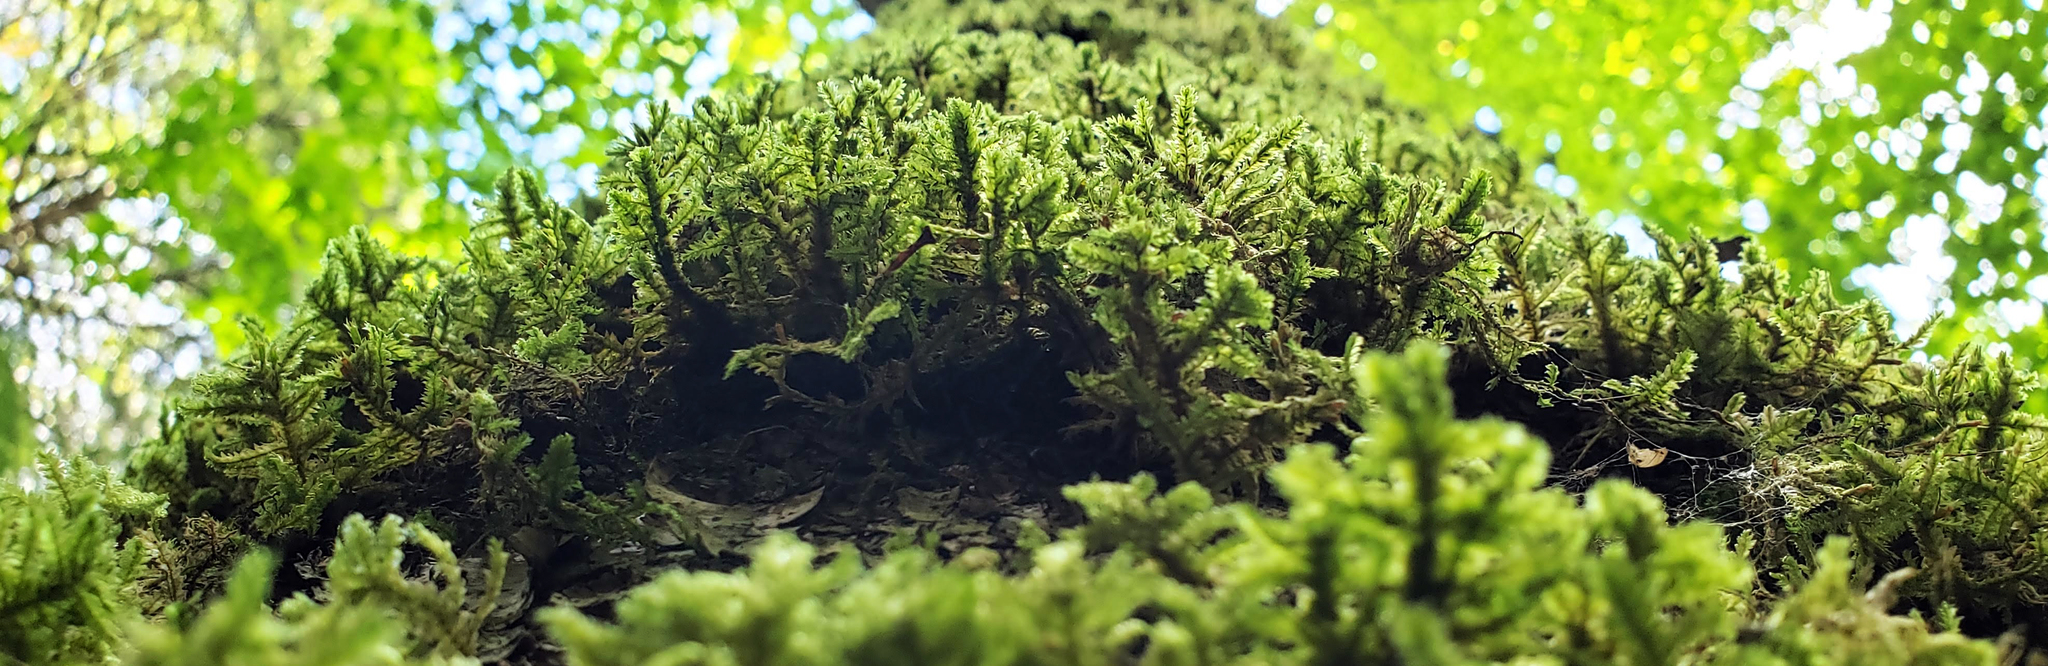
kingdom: Plantae
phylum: Bryophyta
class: Bryopsida
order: Hypnales
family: Neckeraceae
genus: Neckera
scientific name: Neckera pennata
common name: Feathery neckera
